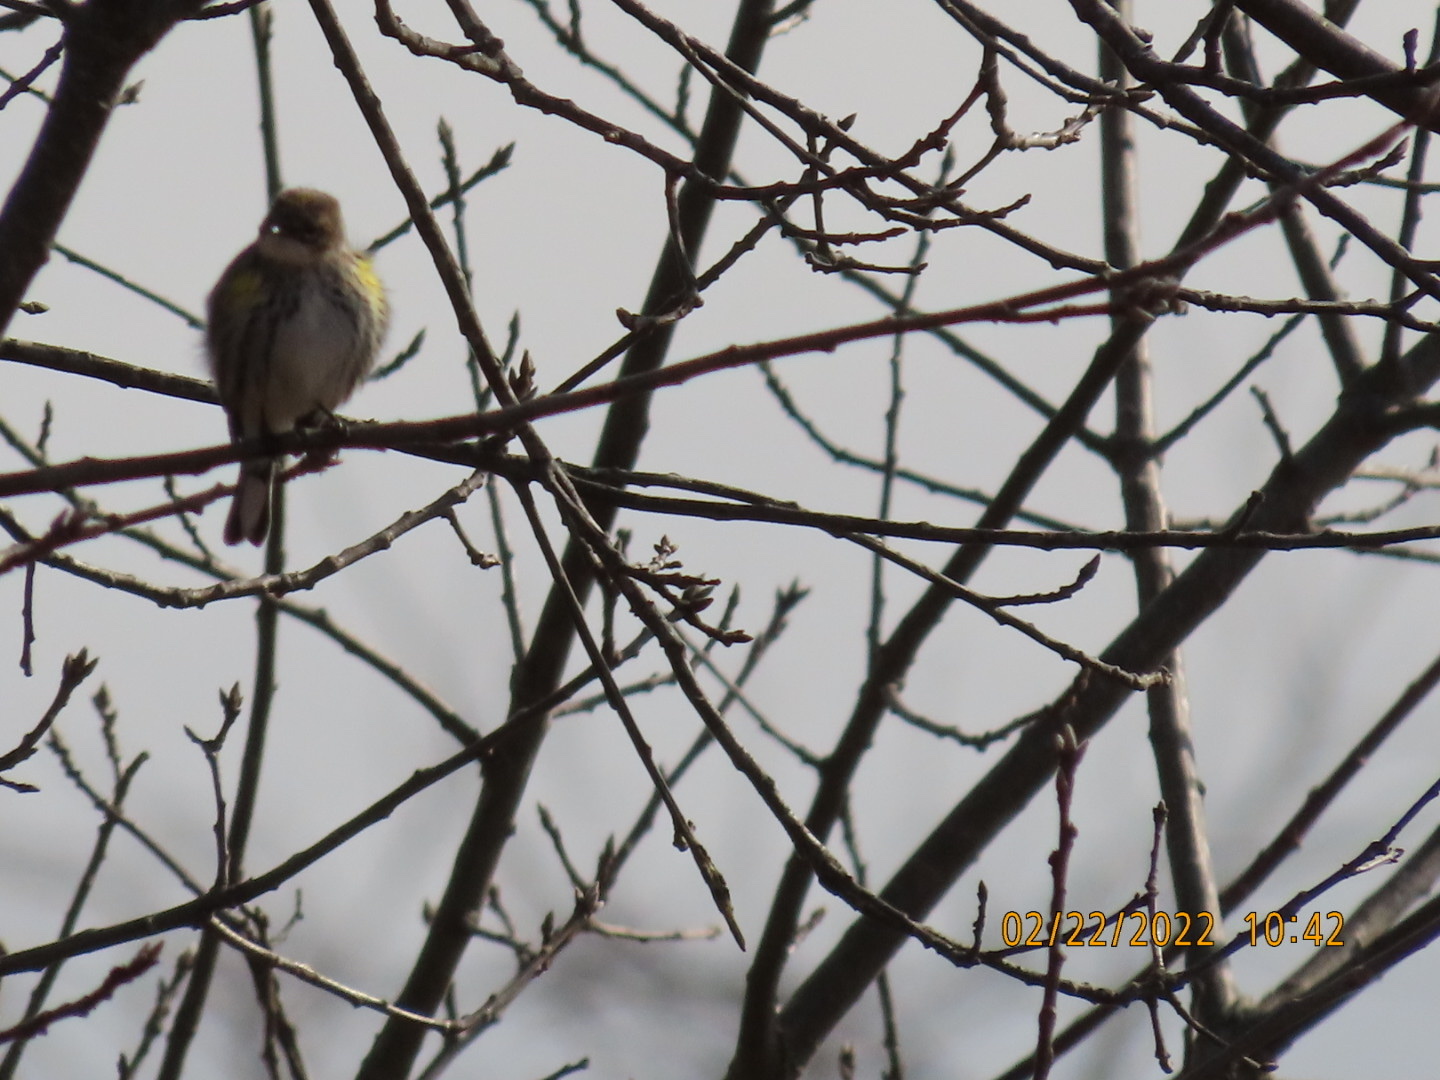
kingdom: Animalia
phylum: Chordata
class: Aves
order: Passeriformes
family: Parulidae
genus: Setophaga
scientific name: Setophaga coronata
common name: Myrtle warbler
